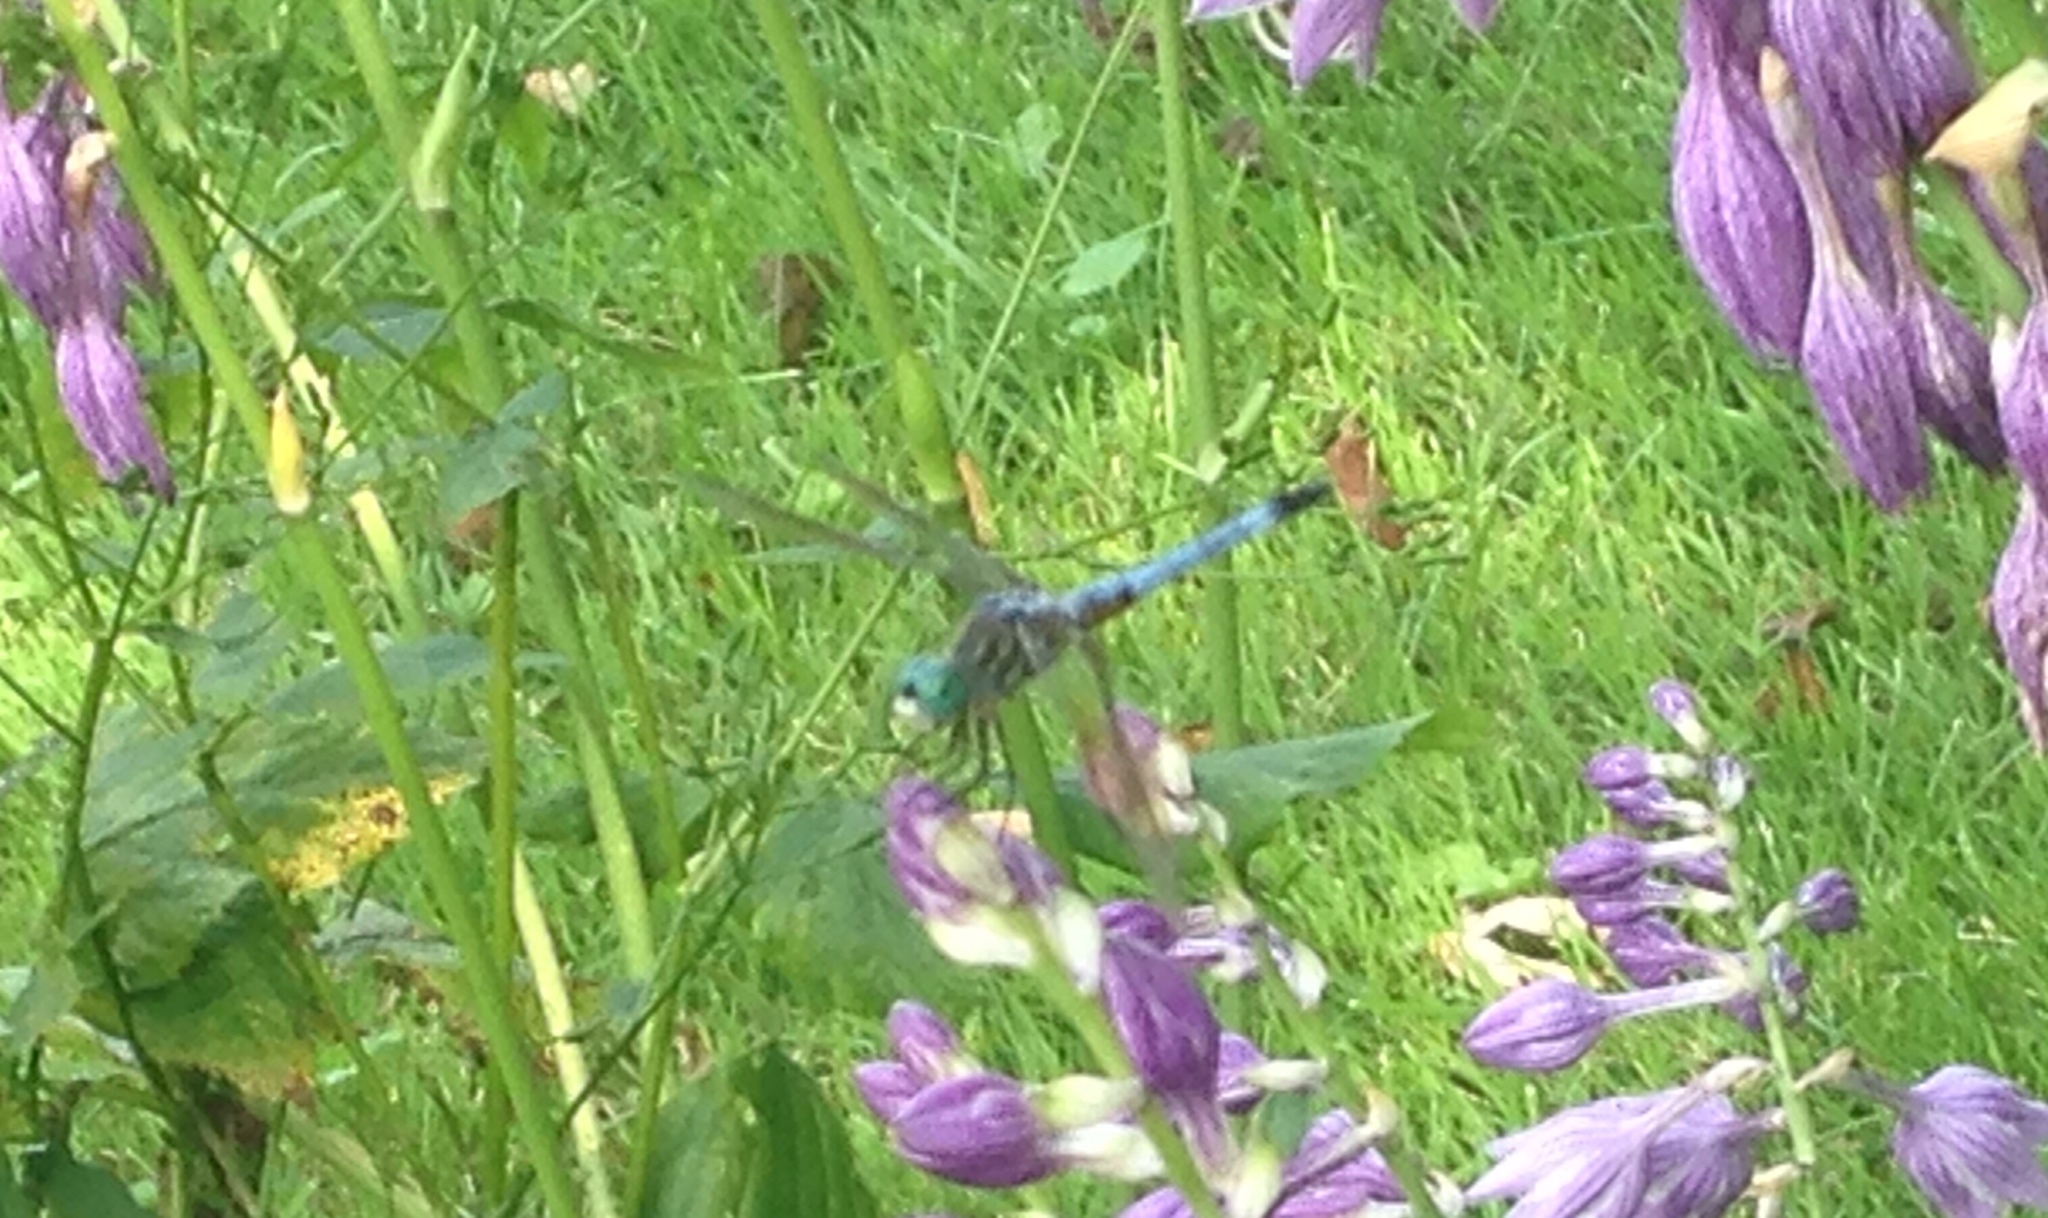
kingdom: Animalia
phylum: Arthropoda
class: Insecta
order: Odonata
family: Libellulidae
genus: Pachydiplax
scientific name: Pachydiplax longipennis
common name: Blue dasher
